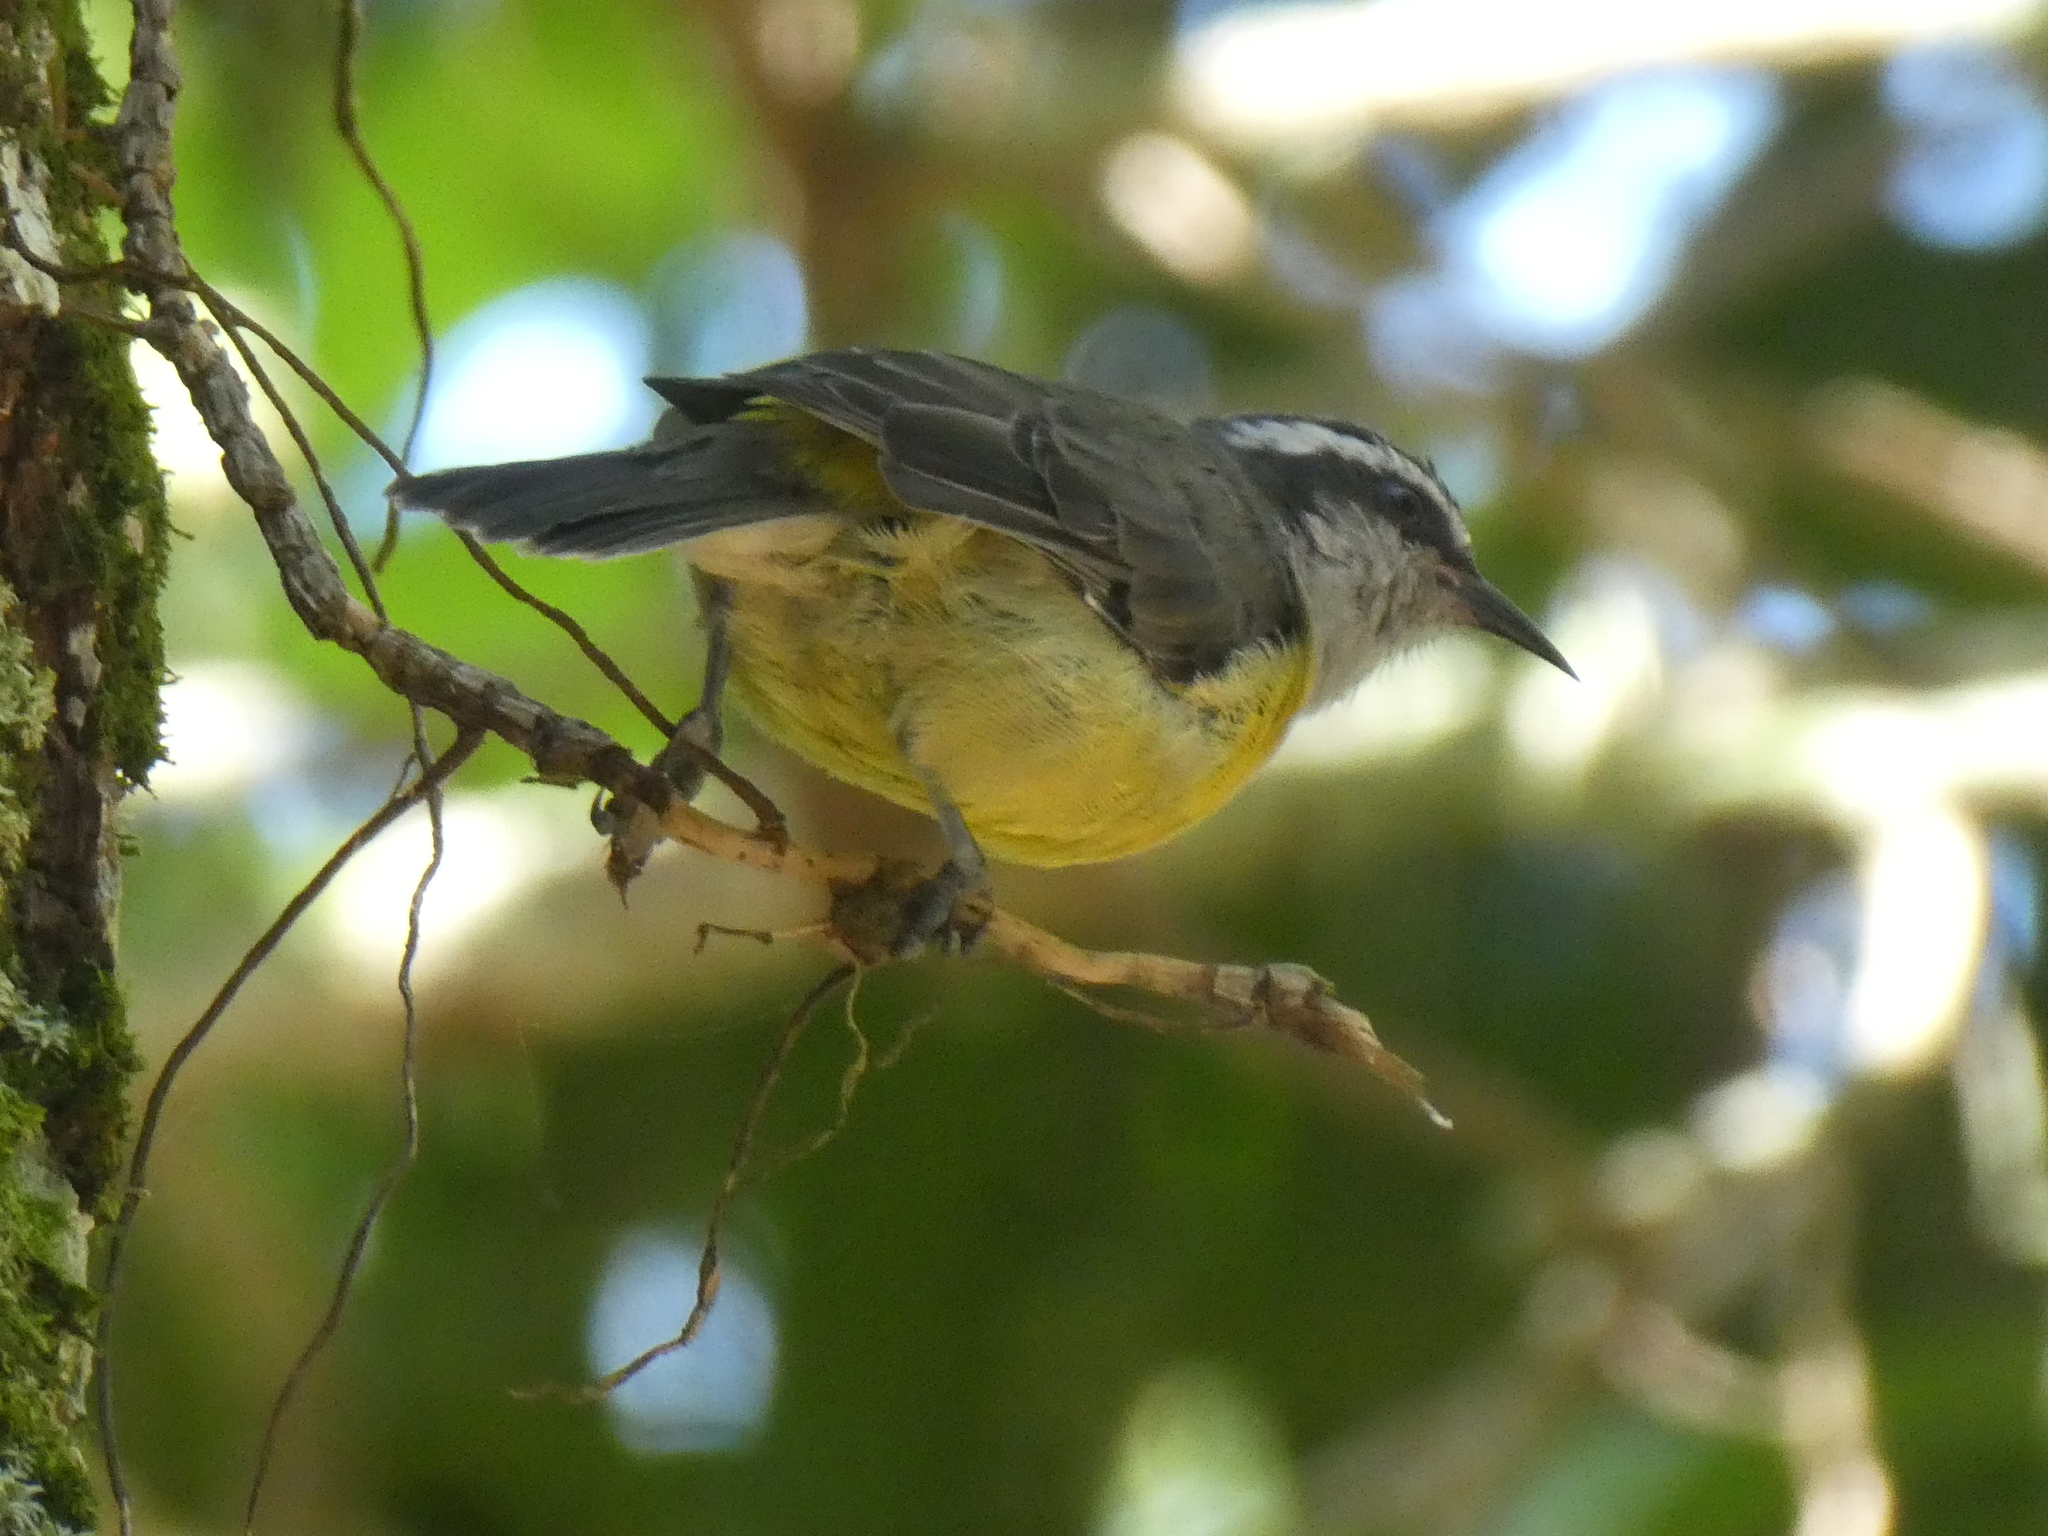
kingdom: Animalia
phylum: Chordata
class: Aves
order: Passeriformes
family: Thraupidae
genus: Coereba
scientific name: Coereba flaveola
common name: Bananaquit
